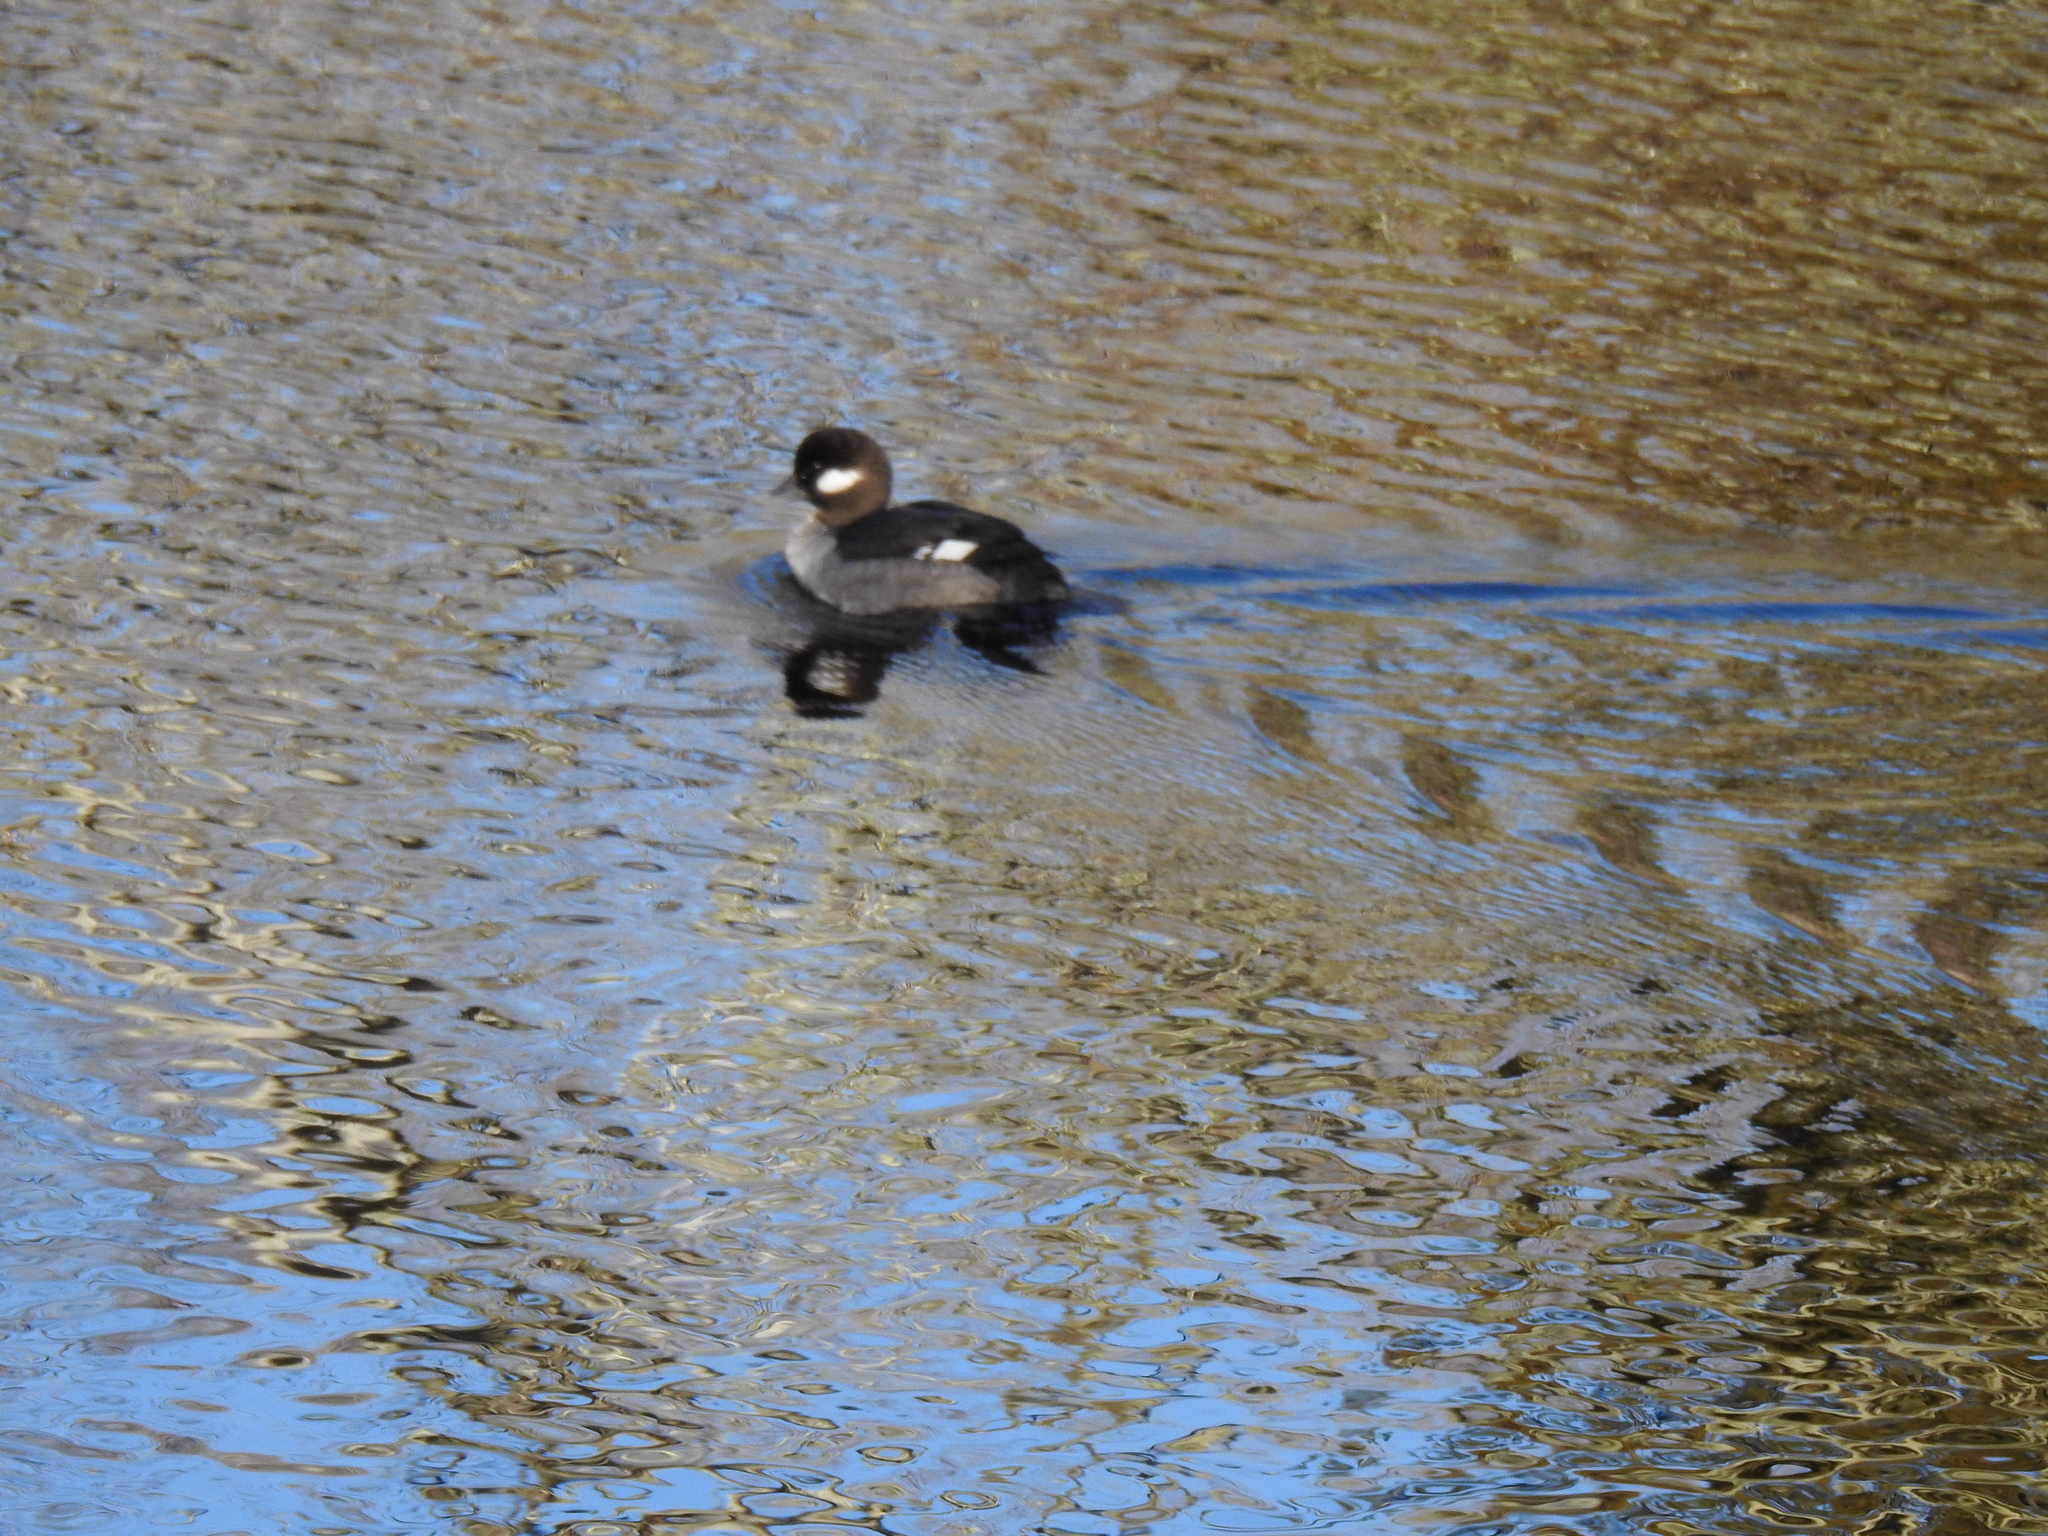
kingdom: Animalia
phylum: Chordata
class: Aves
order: Anseriformes
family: Anatidae
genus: Bucephala
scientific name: Bucephala albeola
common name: Bufflehead
